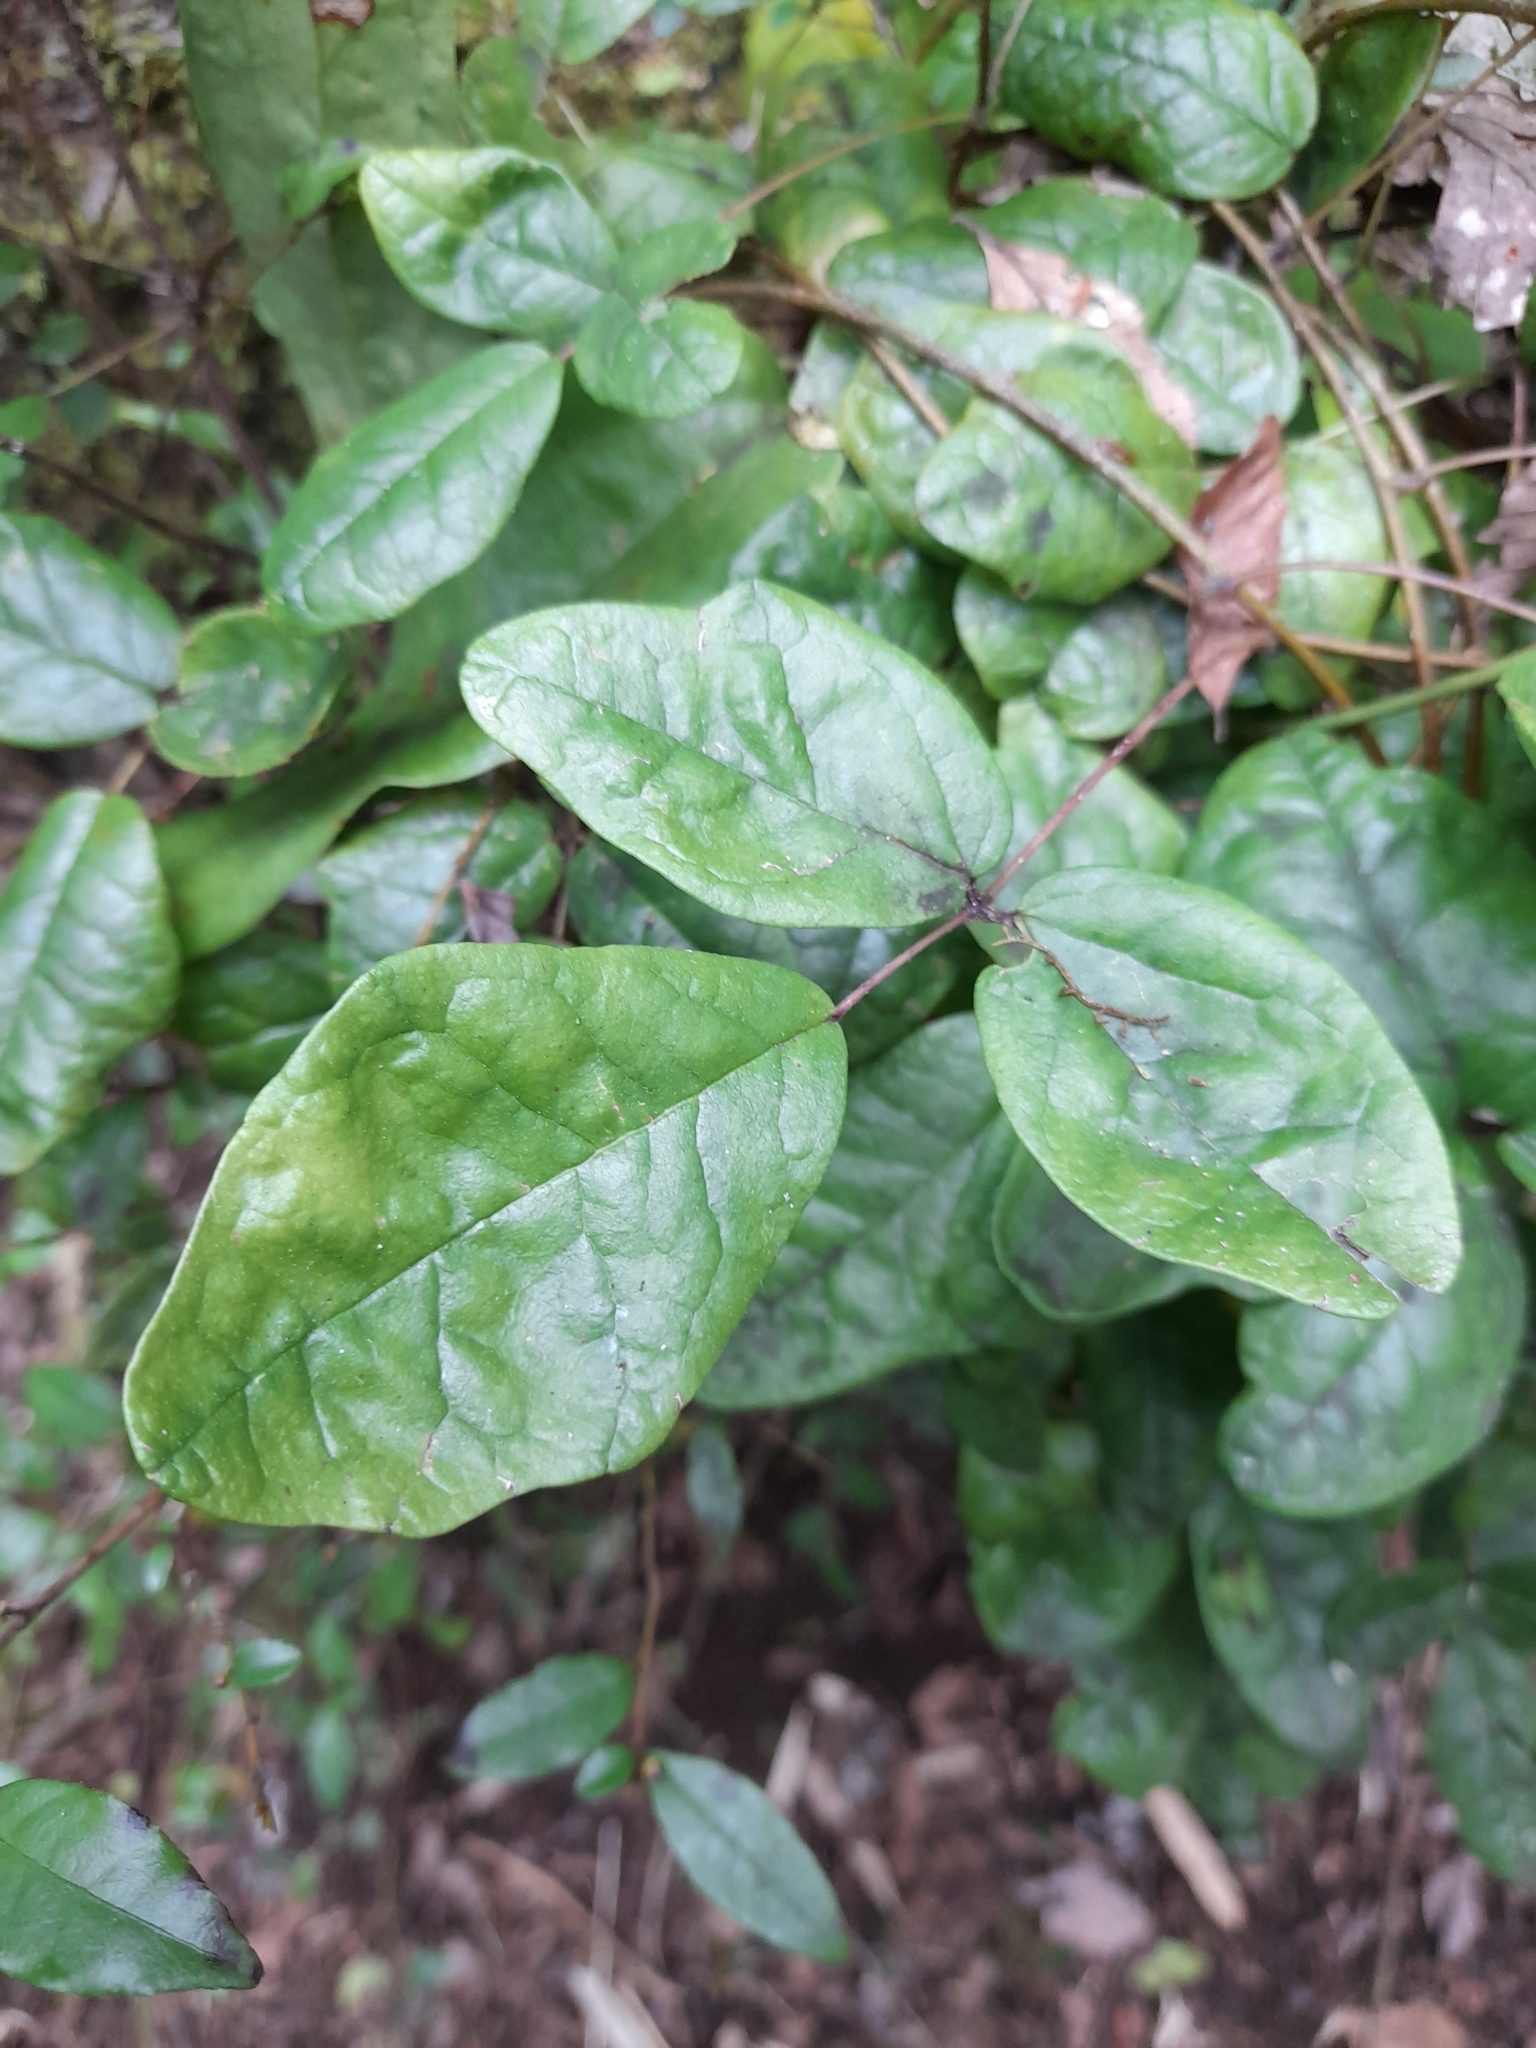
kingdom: Plantae
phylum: Tracheophyta
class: Magnoliopsida
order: Ranunculales
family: Lardizabalaceae
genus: Boquila
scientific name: Boquila trifoliolata
